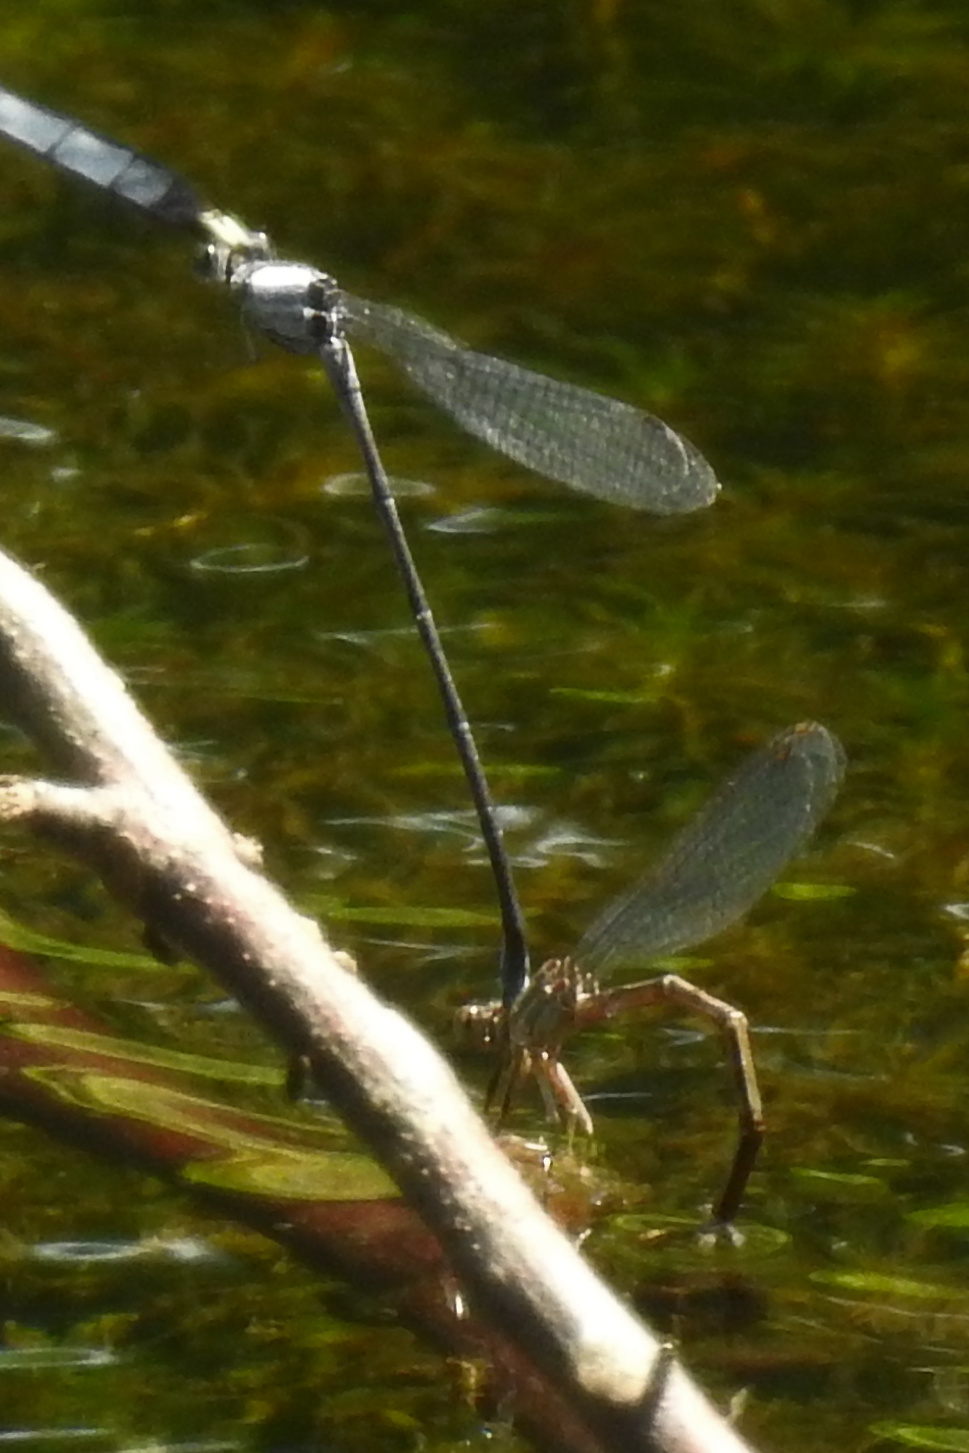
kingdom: Animalia
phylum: Arthropoda
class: Insecta
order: Odonata
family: Coenagrionidae
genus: Argia
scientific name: Argia moesta
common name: Powdered dancer
